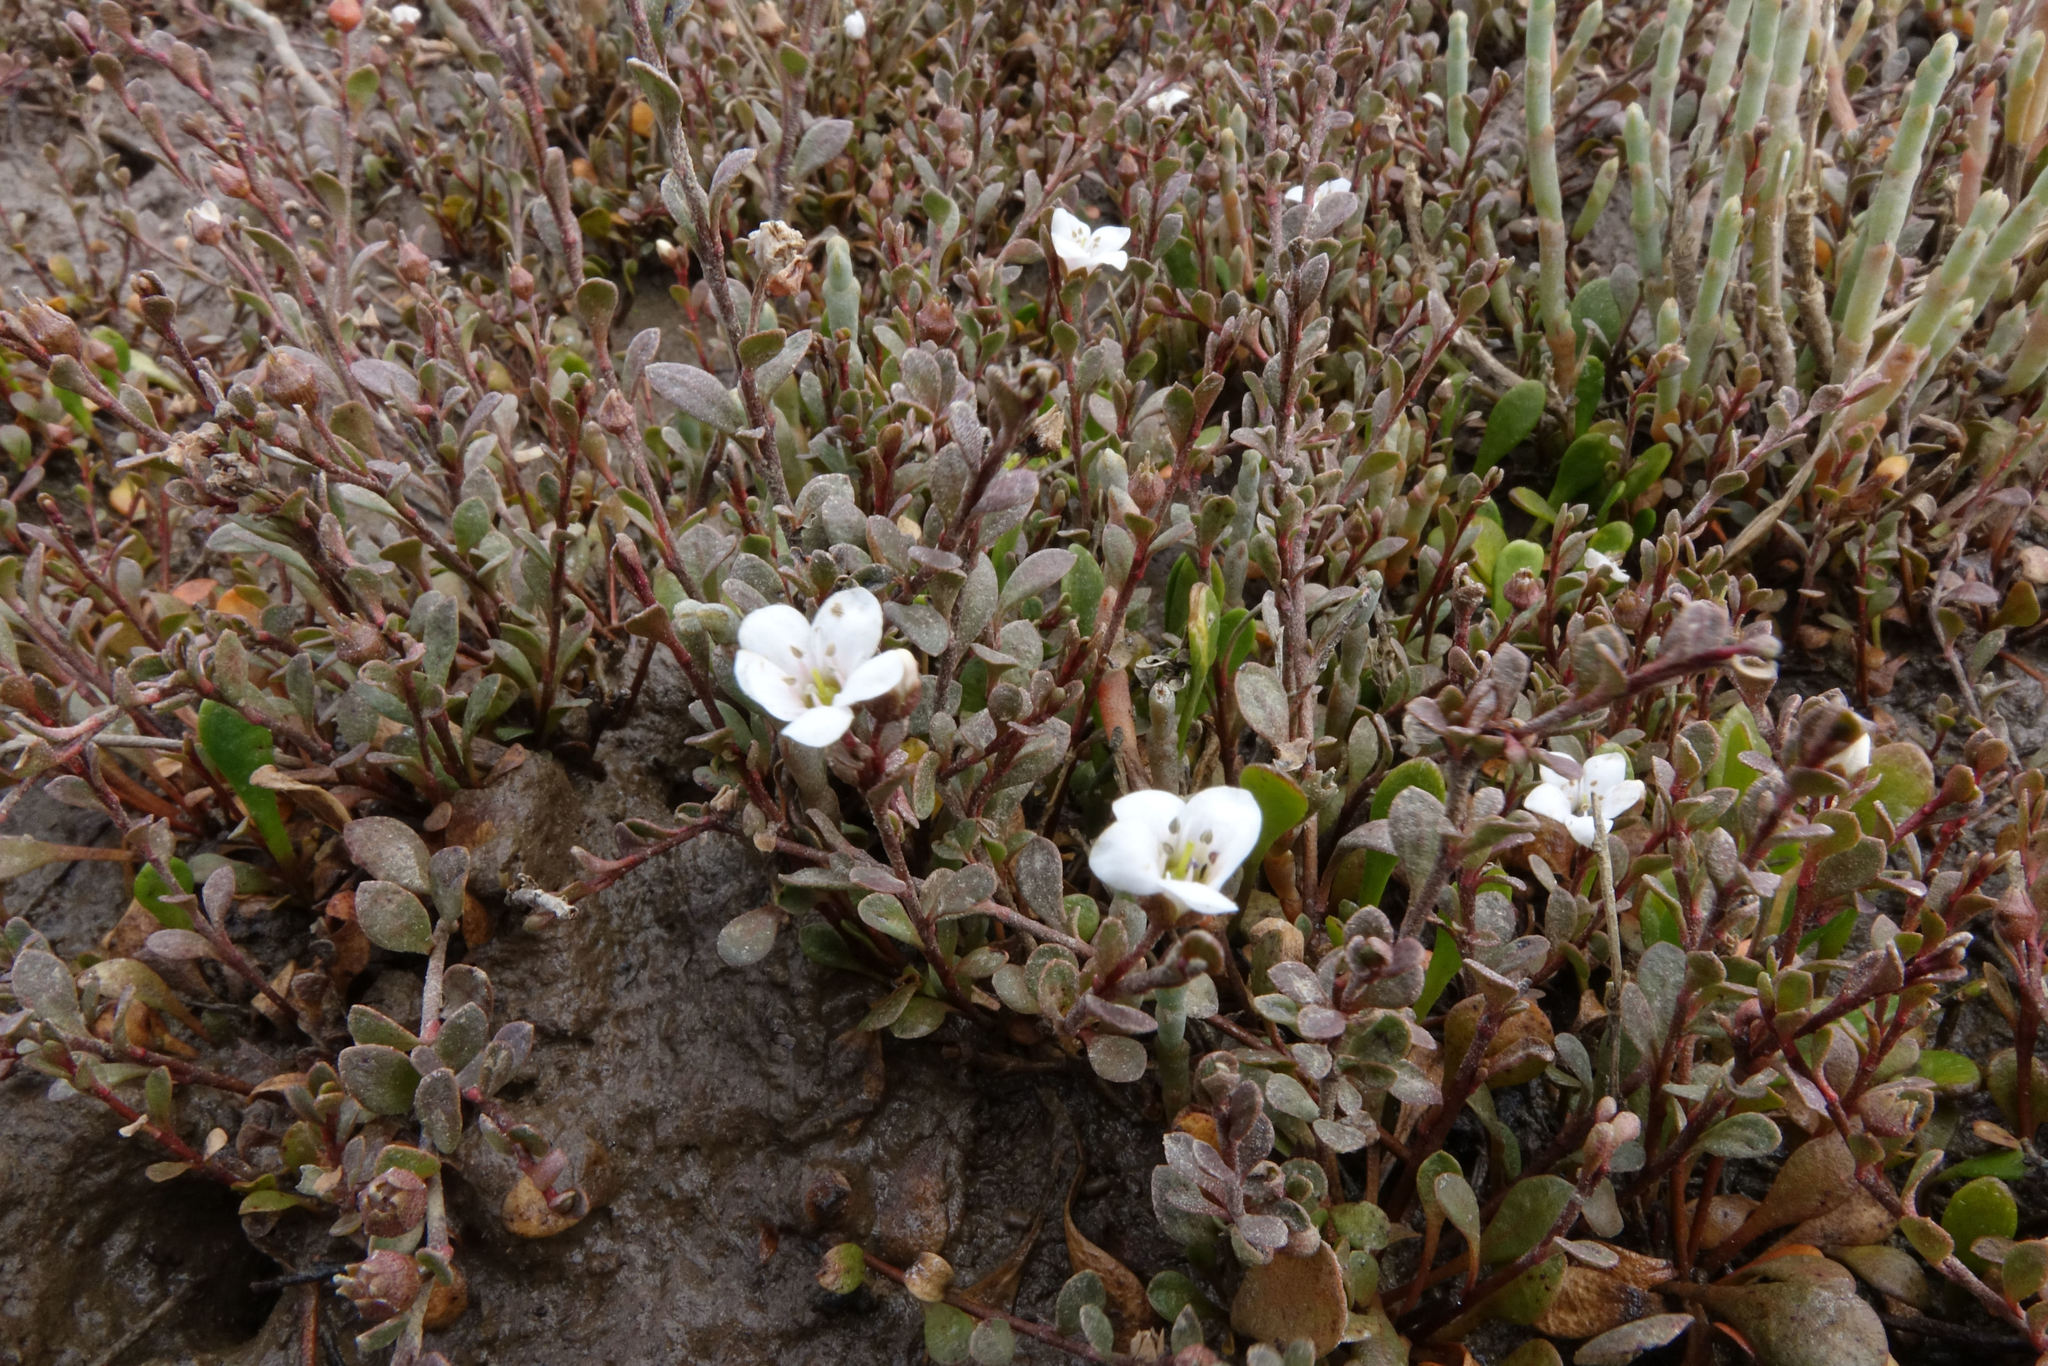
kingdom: Plantae
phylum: Tracheophyta
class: Magnoliopsida
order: Ericales
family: Primulaceae
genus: Samolus
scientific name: Samolus repens
